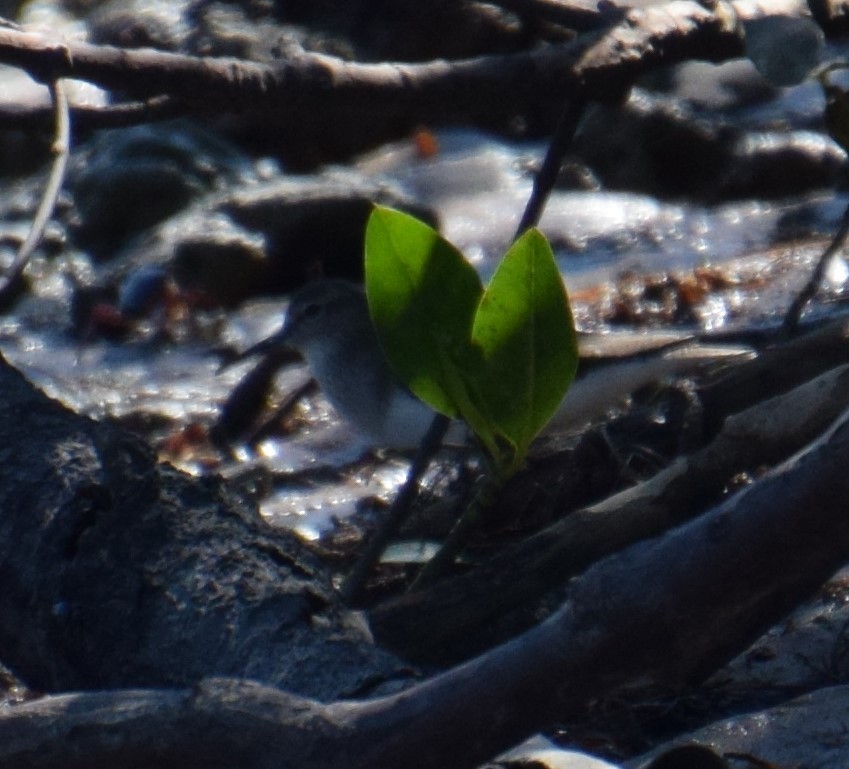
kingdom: Animalia
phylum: Chordata
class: Aves
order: Charadriiformes
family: Scolopacidae
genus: Actitis
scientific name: Actitis hypoleucos
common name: Common sandpiper
